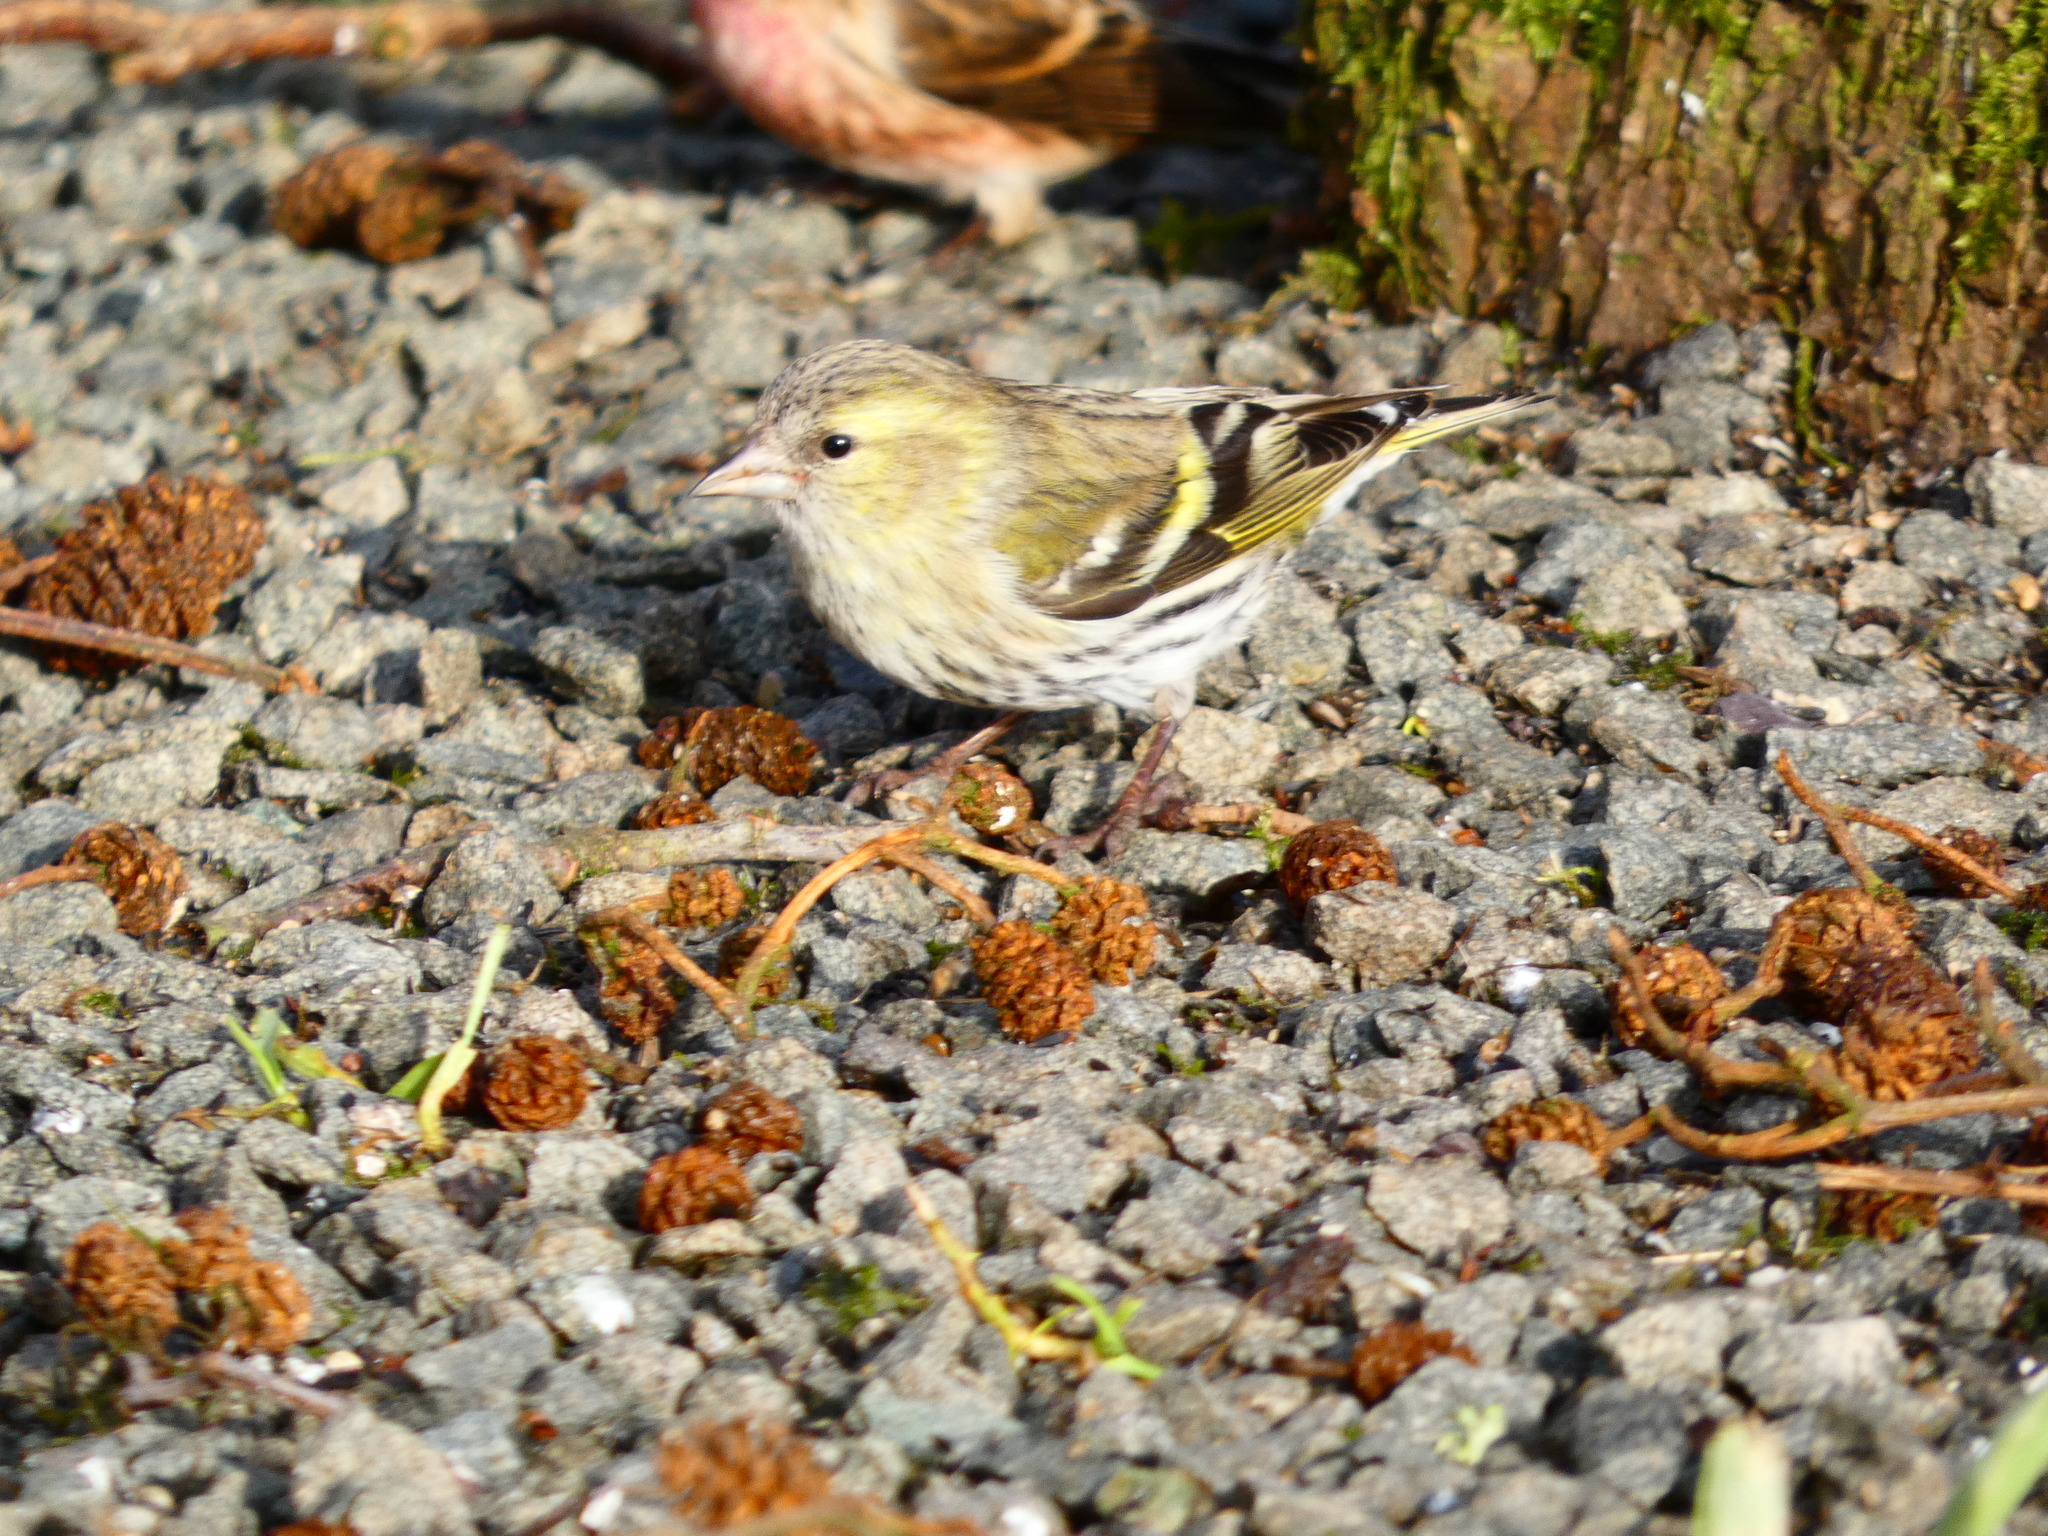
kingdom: Animalia
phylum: Chordata
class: Aves
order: Passeriformes
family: Fringillidae
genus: Spinus
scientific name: Spinus spinus
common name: Eurasian siskin
